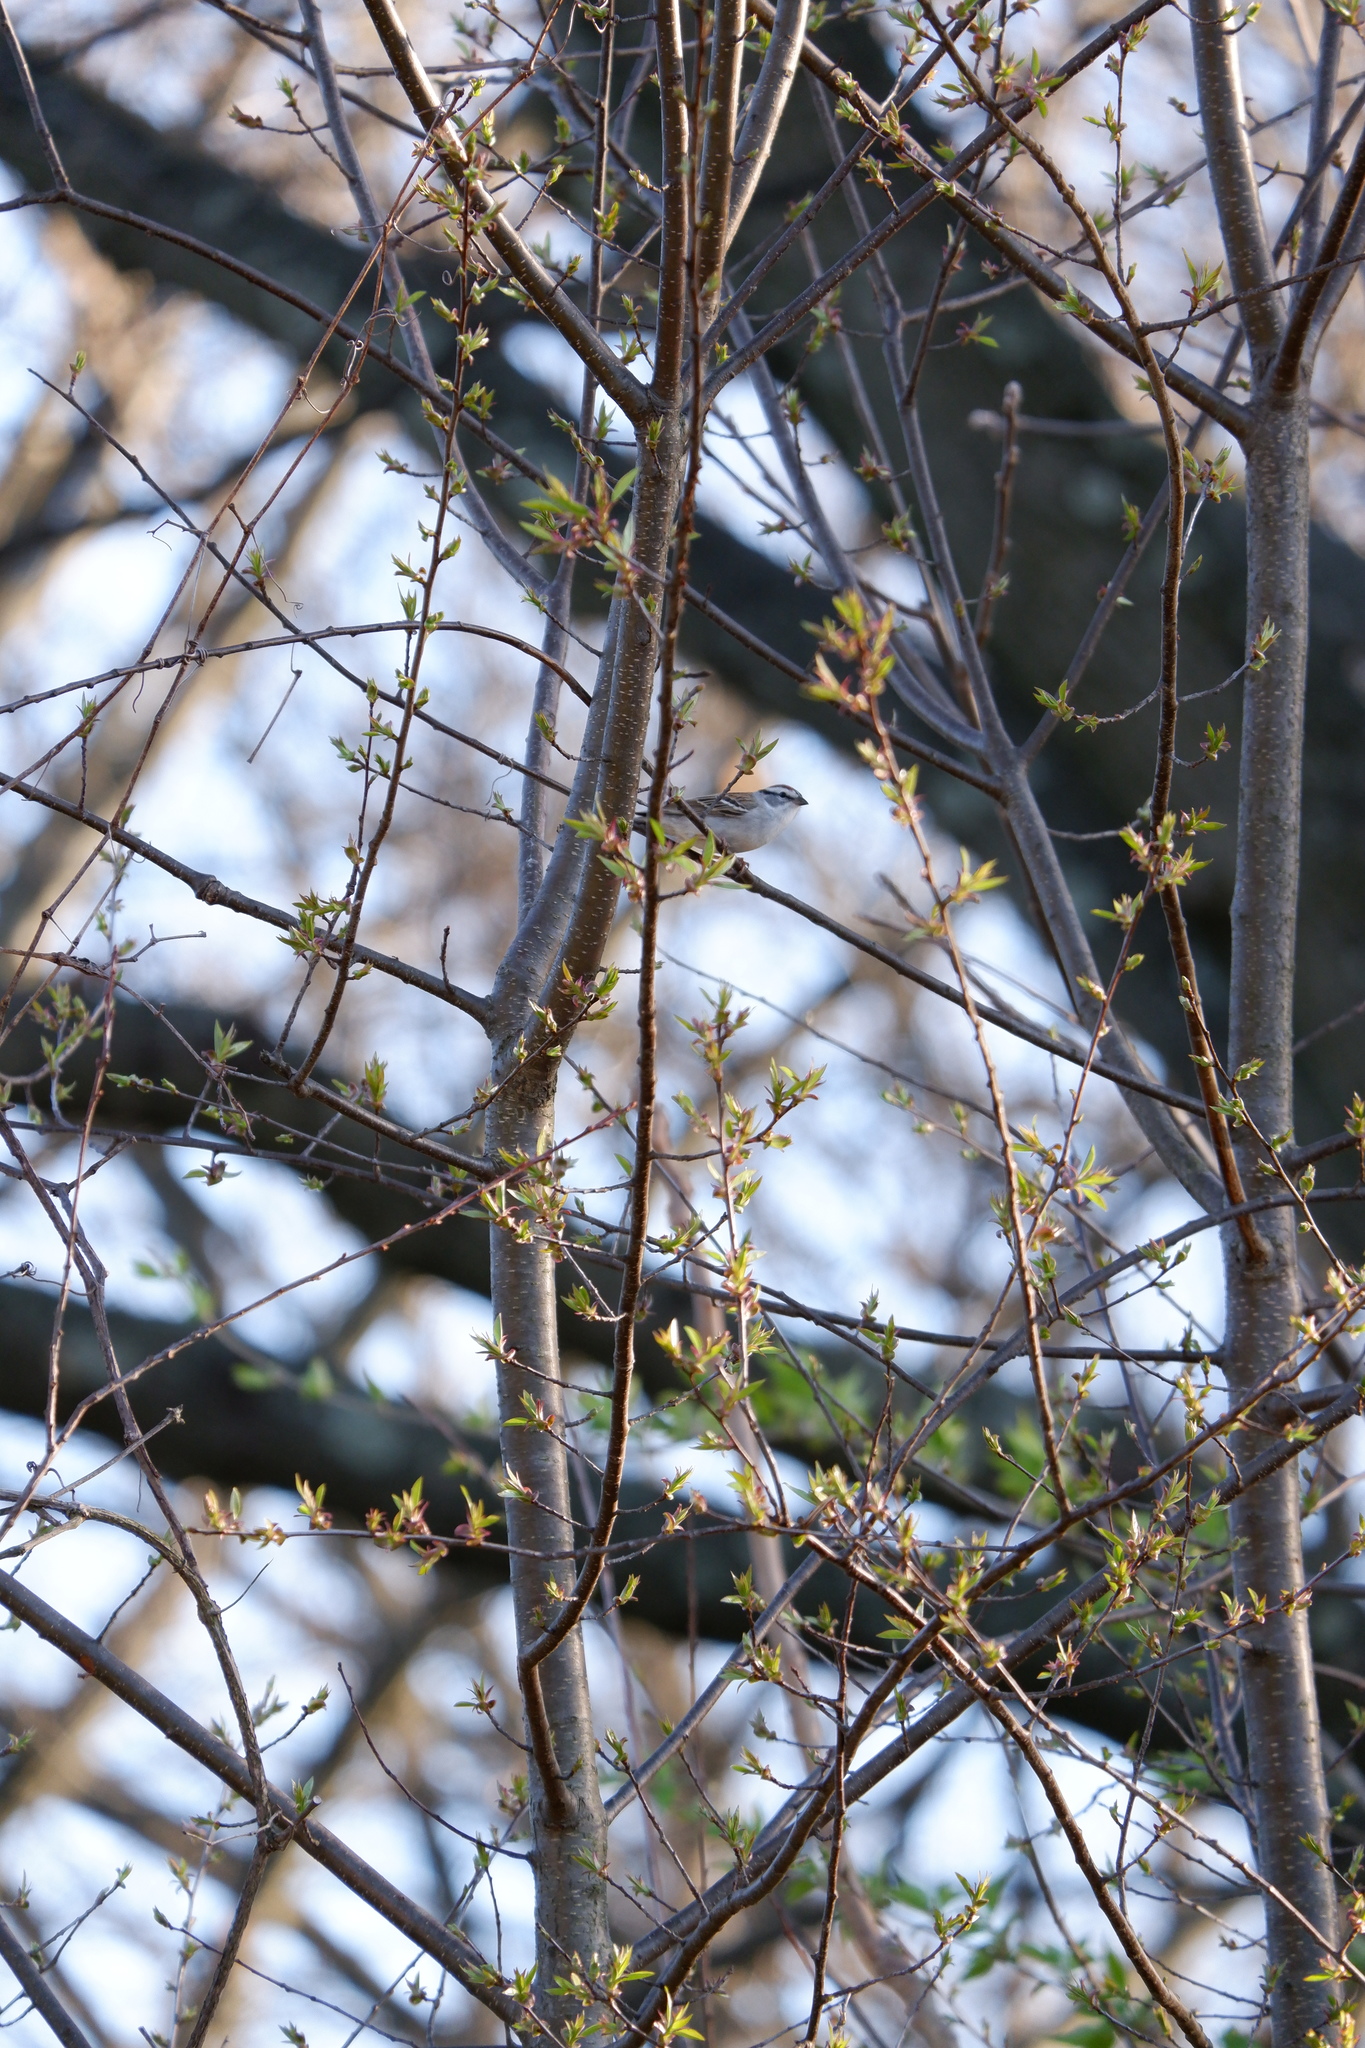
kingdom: Animalia
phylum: Chordata
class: Aves
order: Passeriformes
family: Passerellidae
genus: Spizella
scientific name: Spizella passerina
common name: Chipping sparrow
